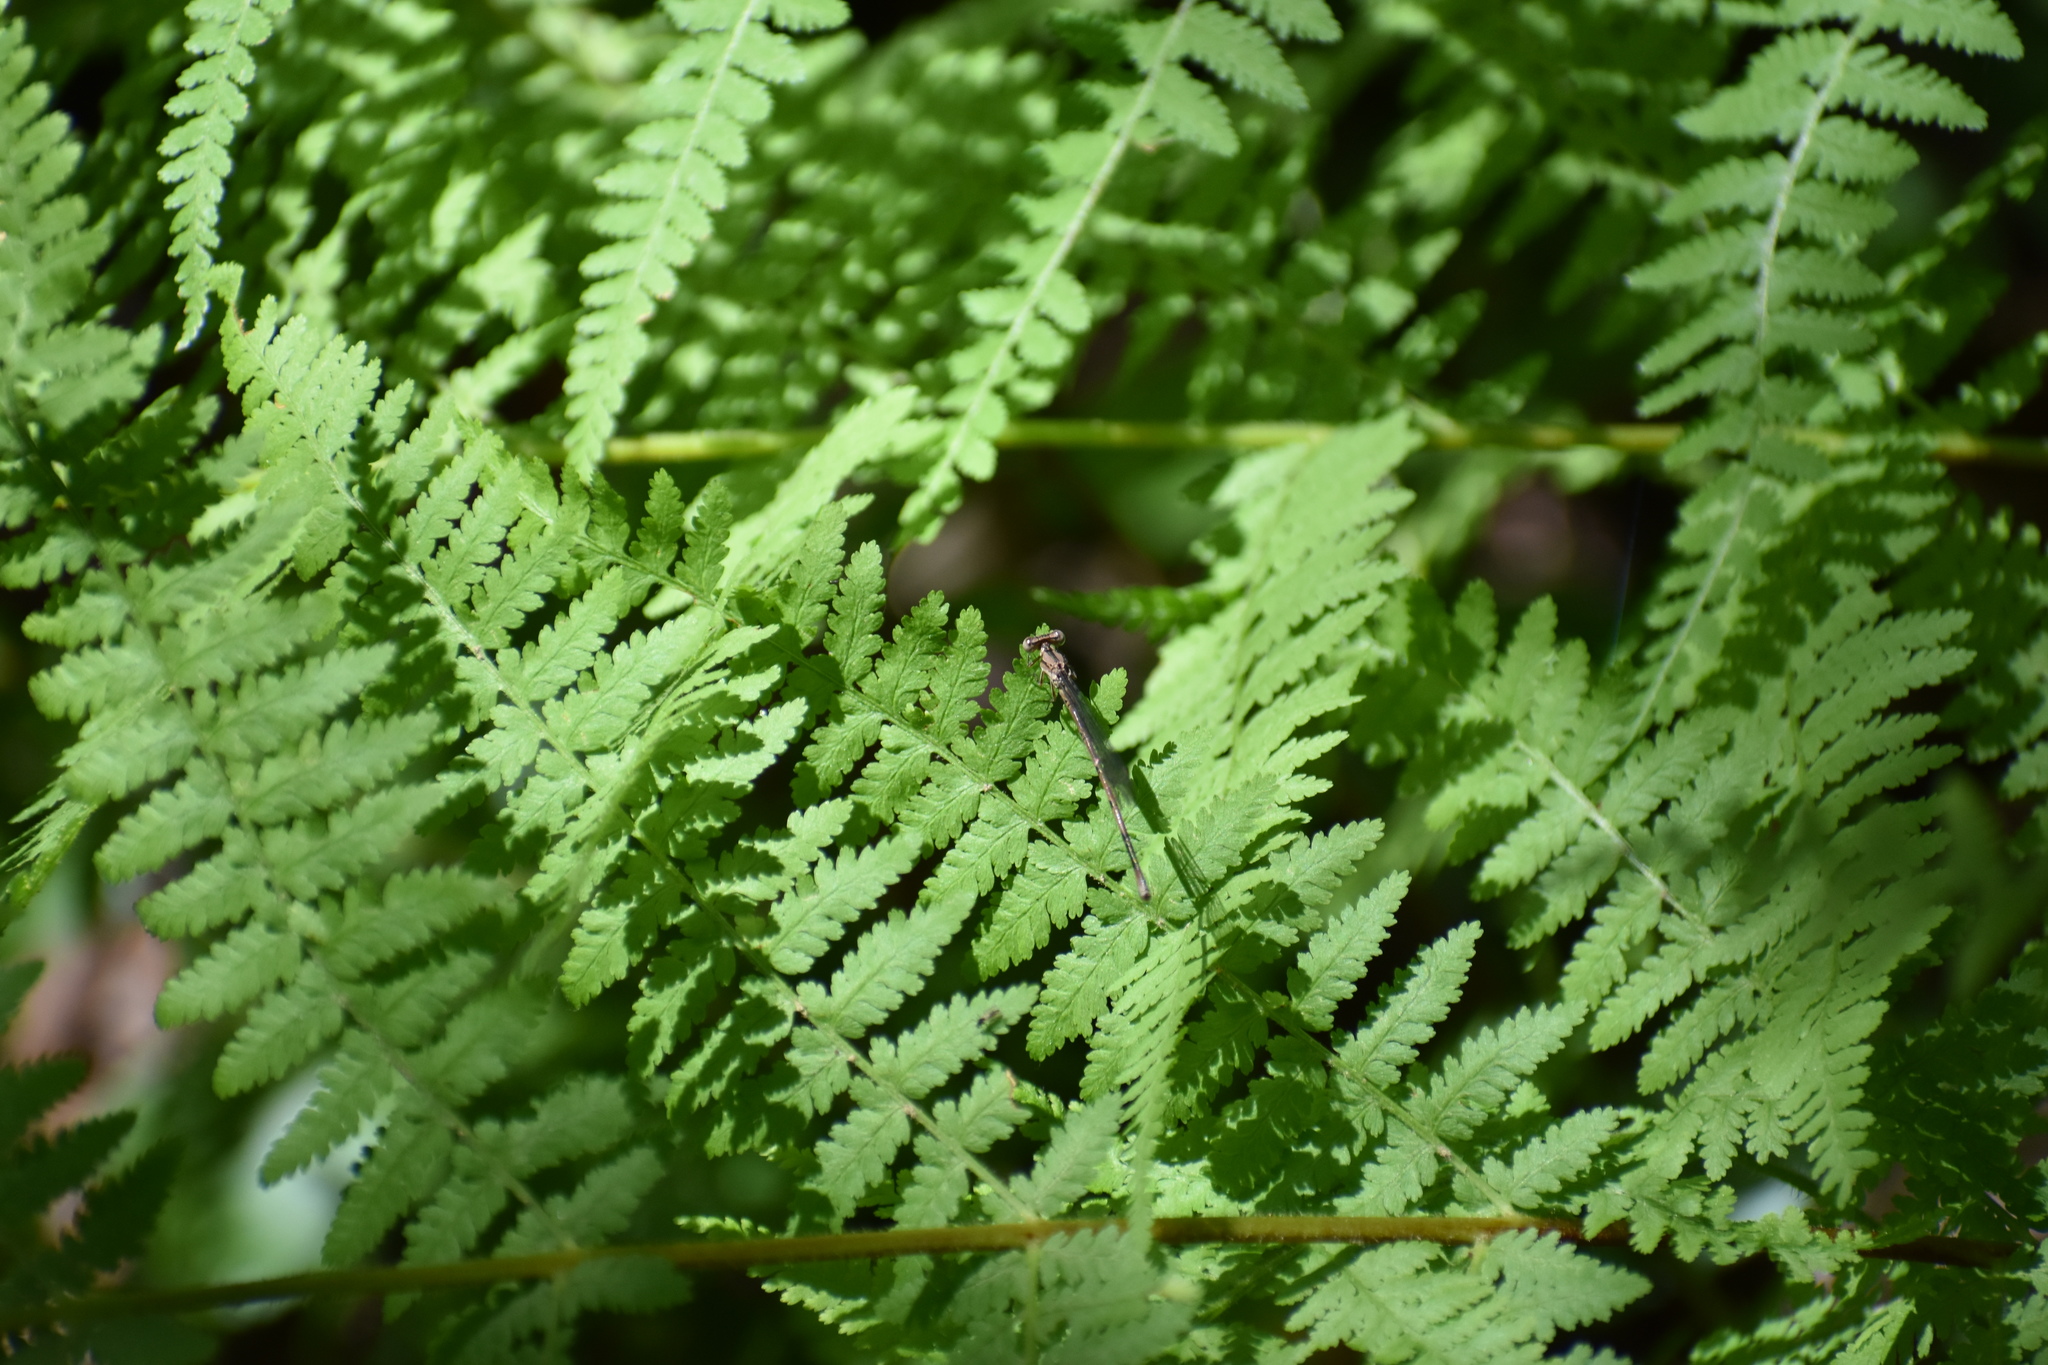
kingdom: Animalia
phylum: Arthropoda
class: Insecta
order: Odonata
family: Coenagrionidae
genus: Argia
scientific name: Argia fumipennis
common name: Variable dancer
